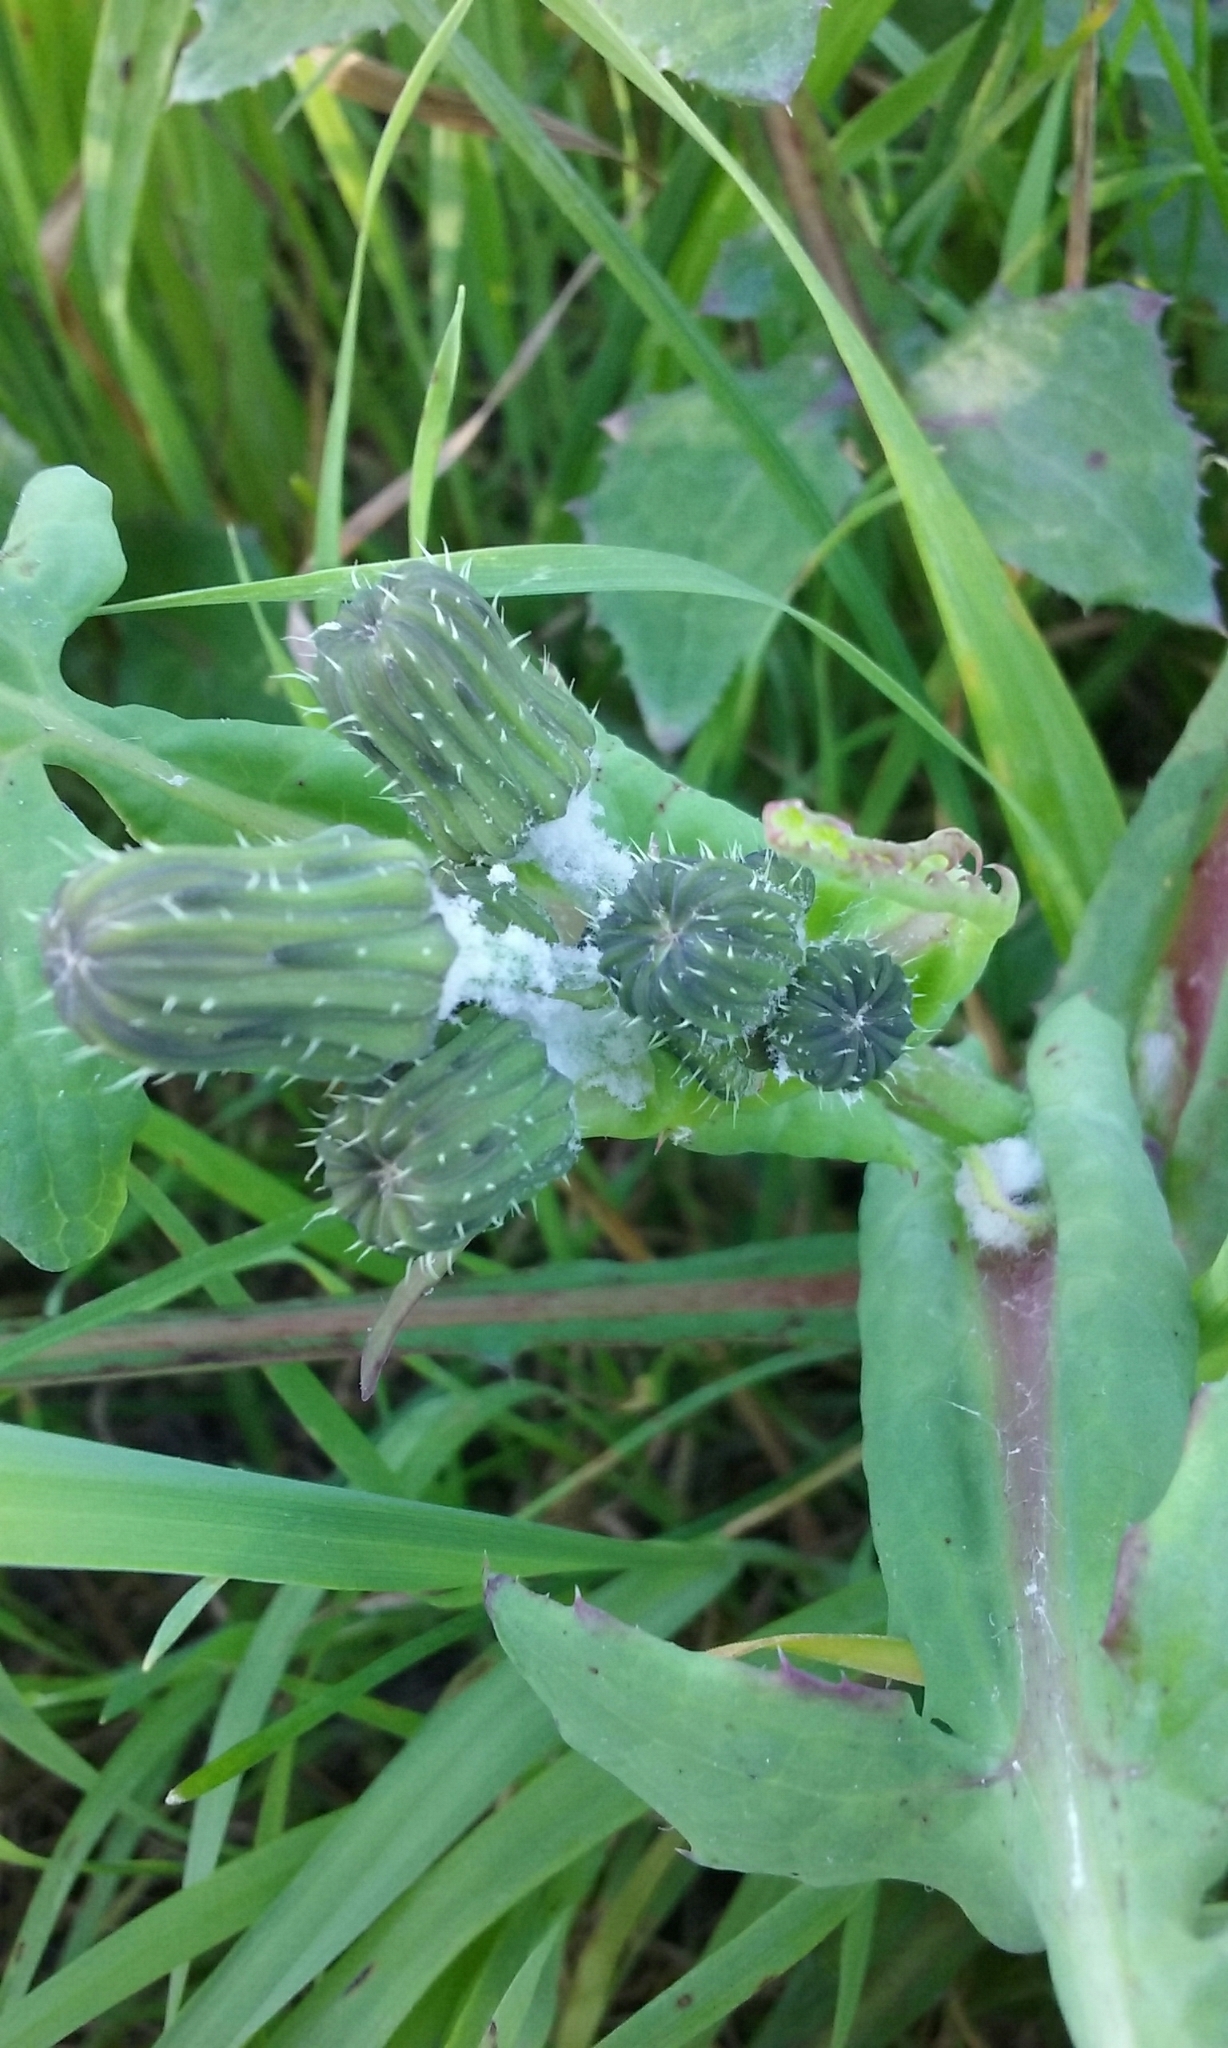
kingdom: Plantae
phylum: Tracheophyta
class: Magnoliopsida
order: Asterales
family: Asteraceae
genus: Sonchus
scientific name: Sonchus oleraceus
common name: Common sowthistle
